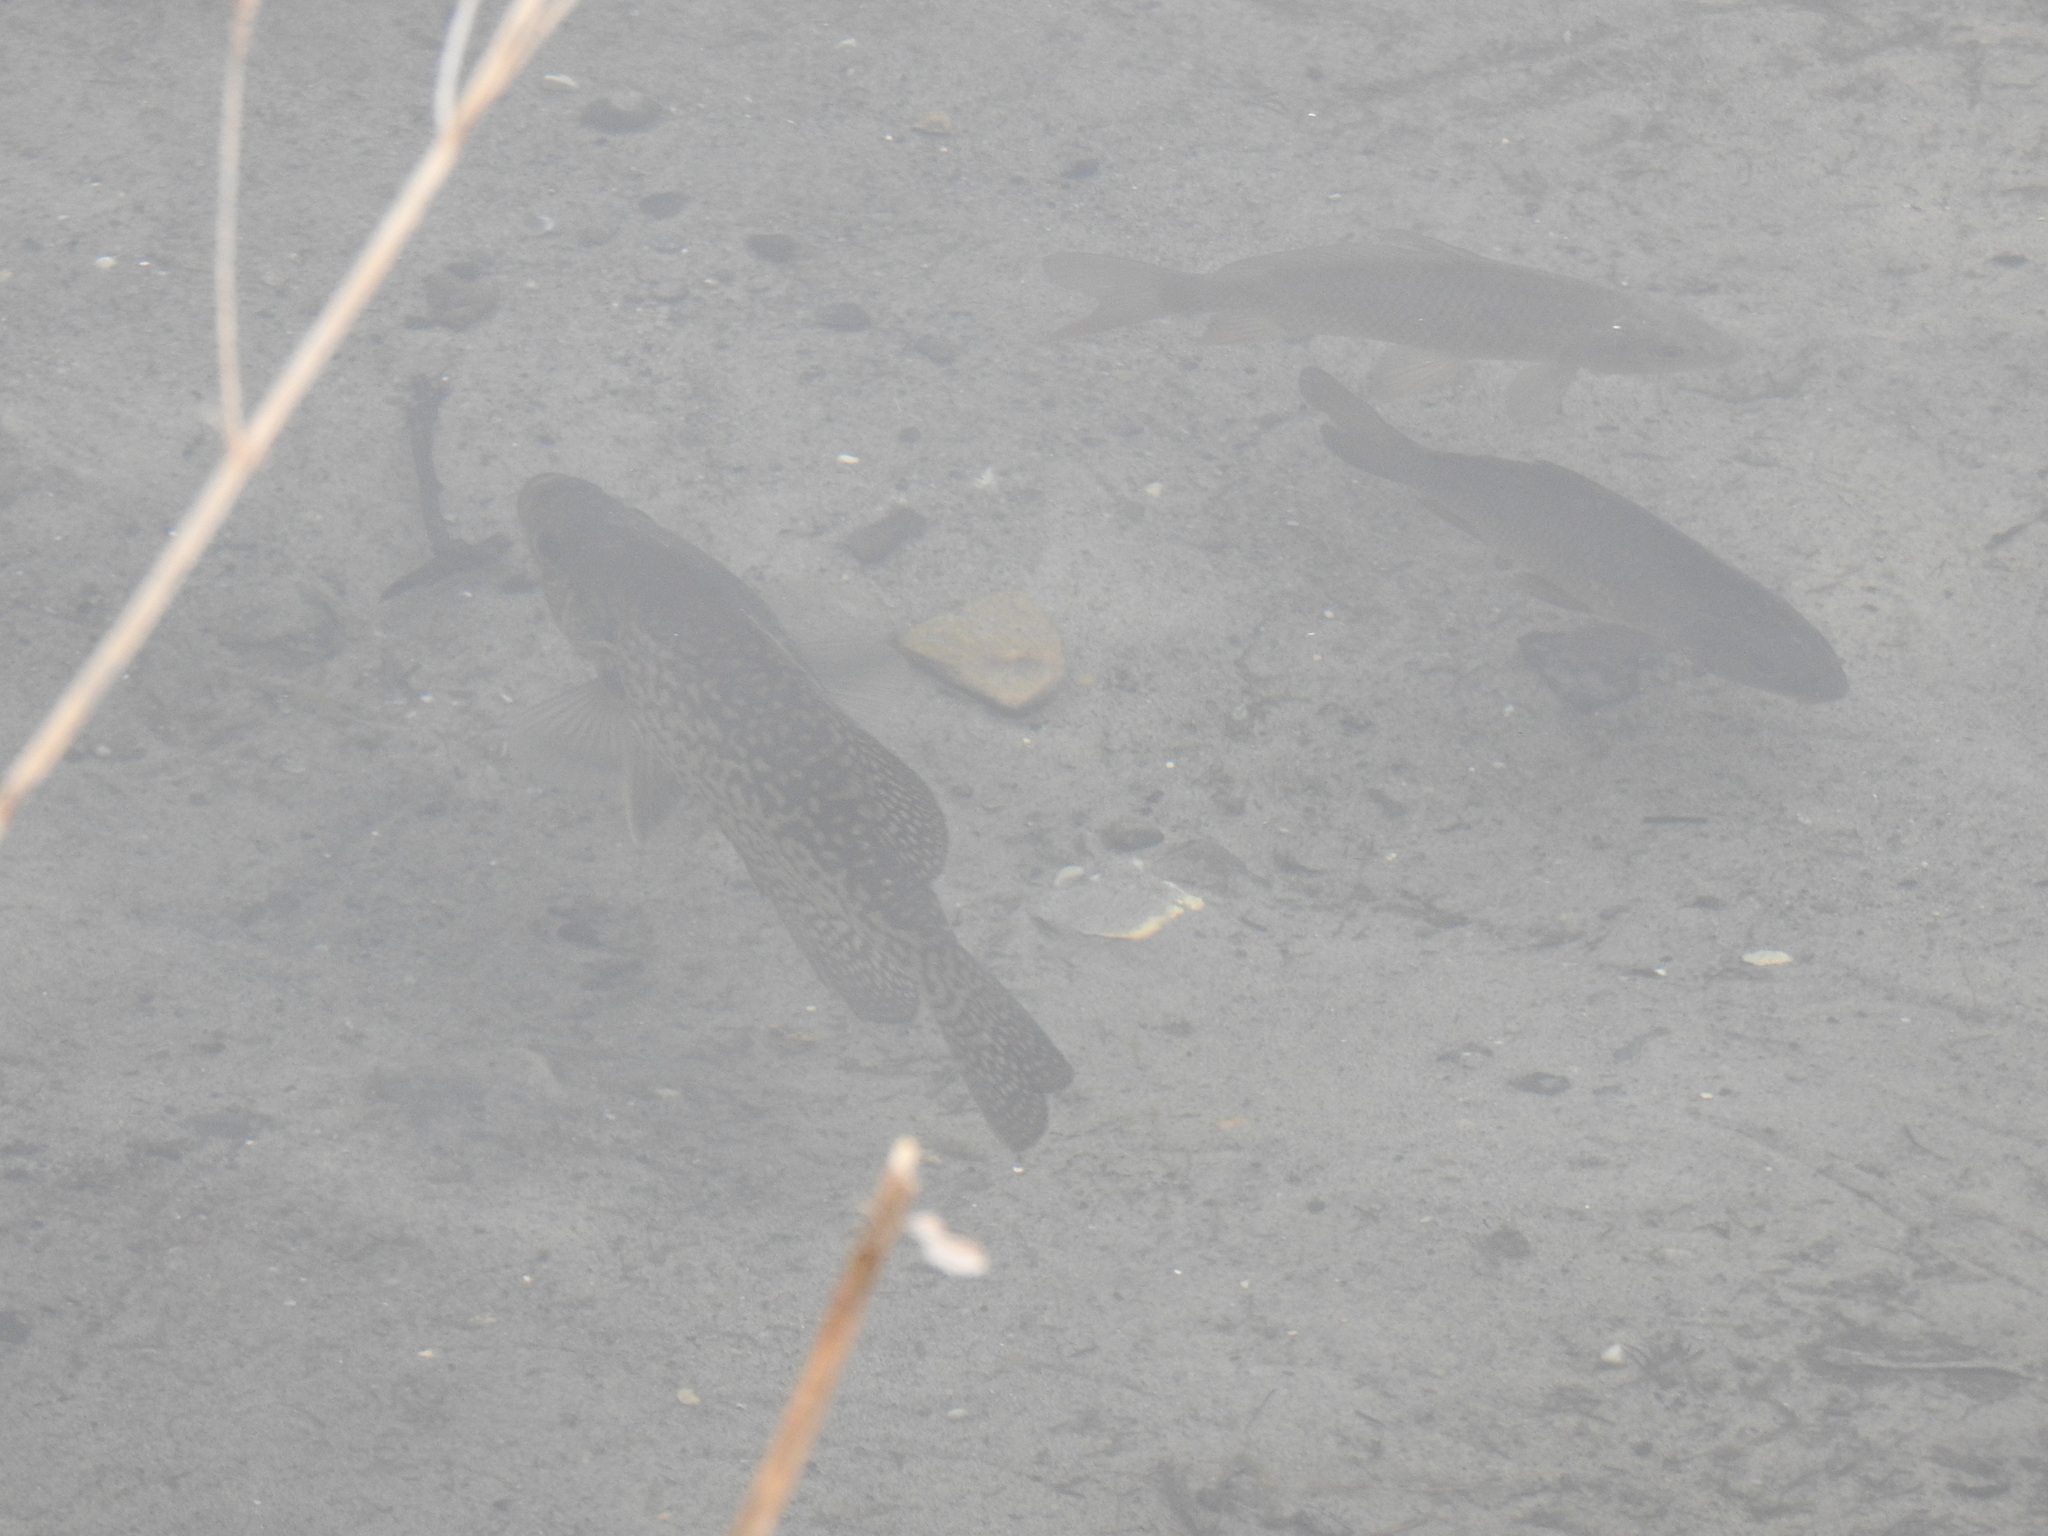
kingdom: Animalia
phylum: Chordata
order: Perciformes
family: Centrarchidae
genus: Pomoxis
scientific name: Pomoxis nigromaculatus
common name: Black crappie
